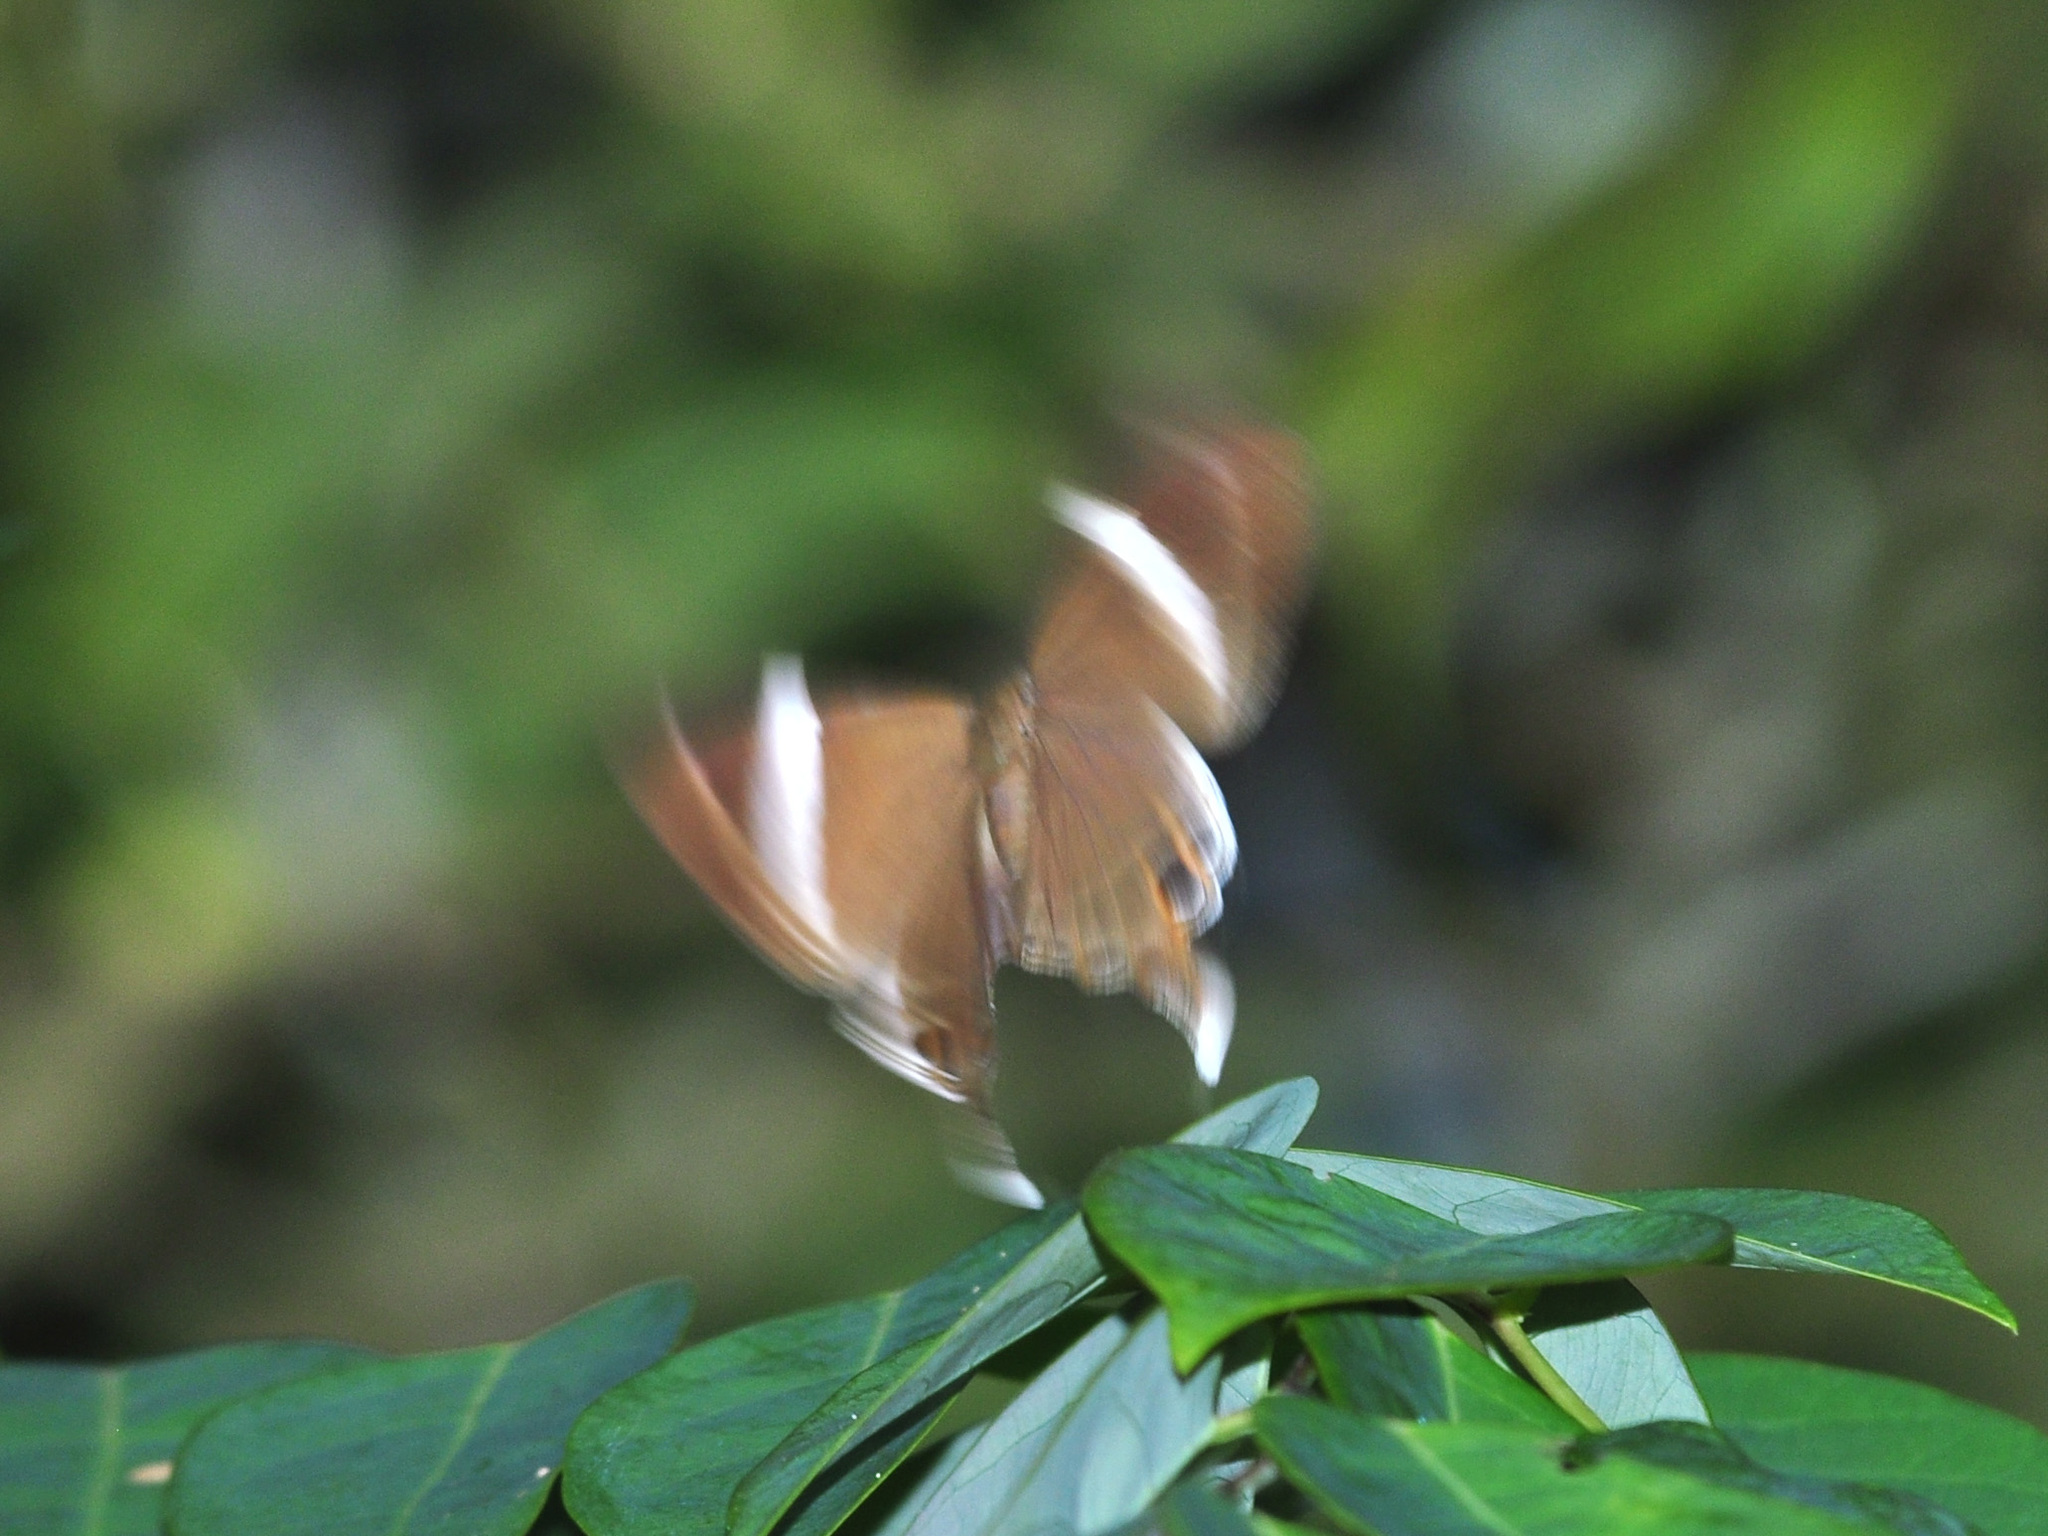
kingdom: Animalia
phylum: Arthropoda
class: Insecta
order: Lepidoptera
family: Lycaenidae
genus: Abisara
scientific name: Abisara neophron
